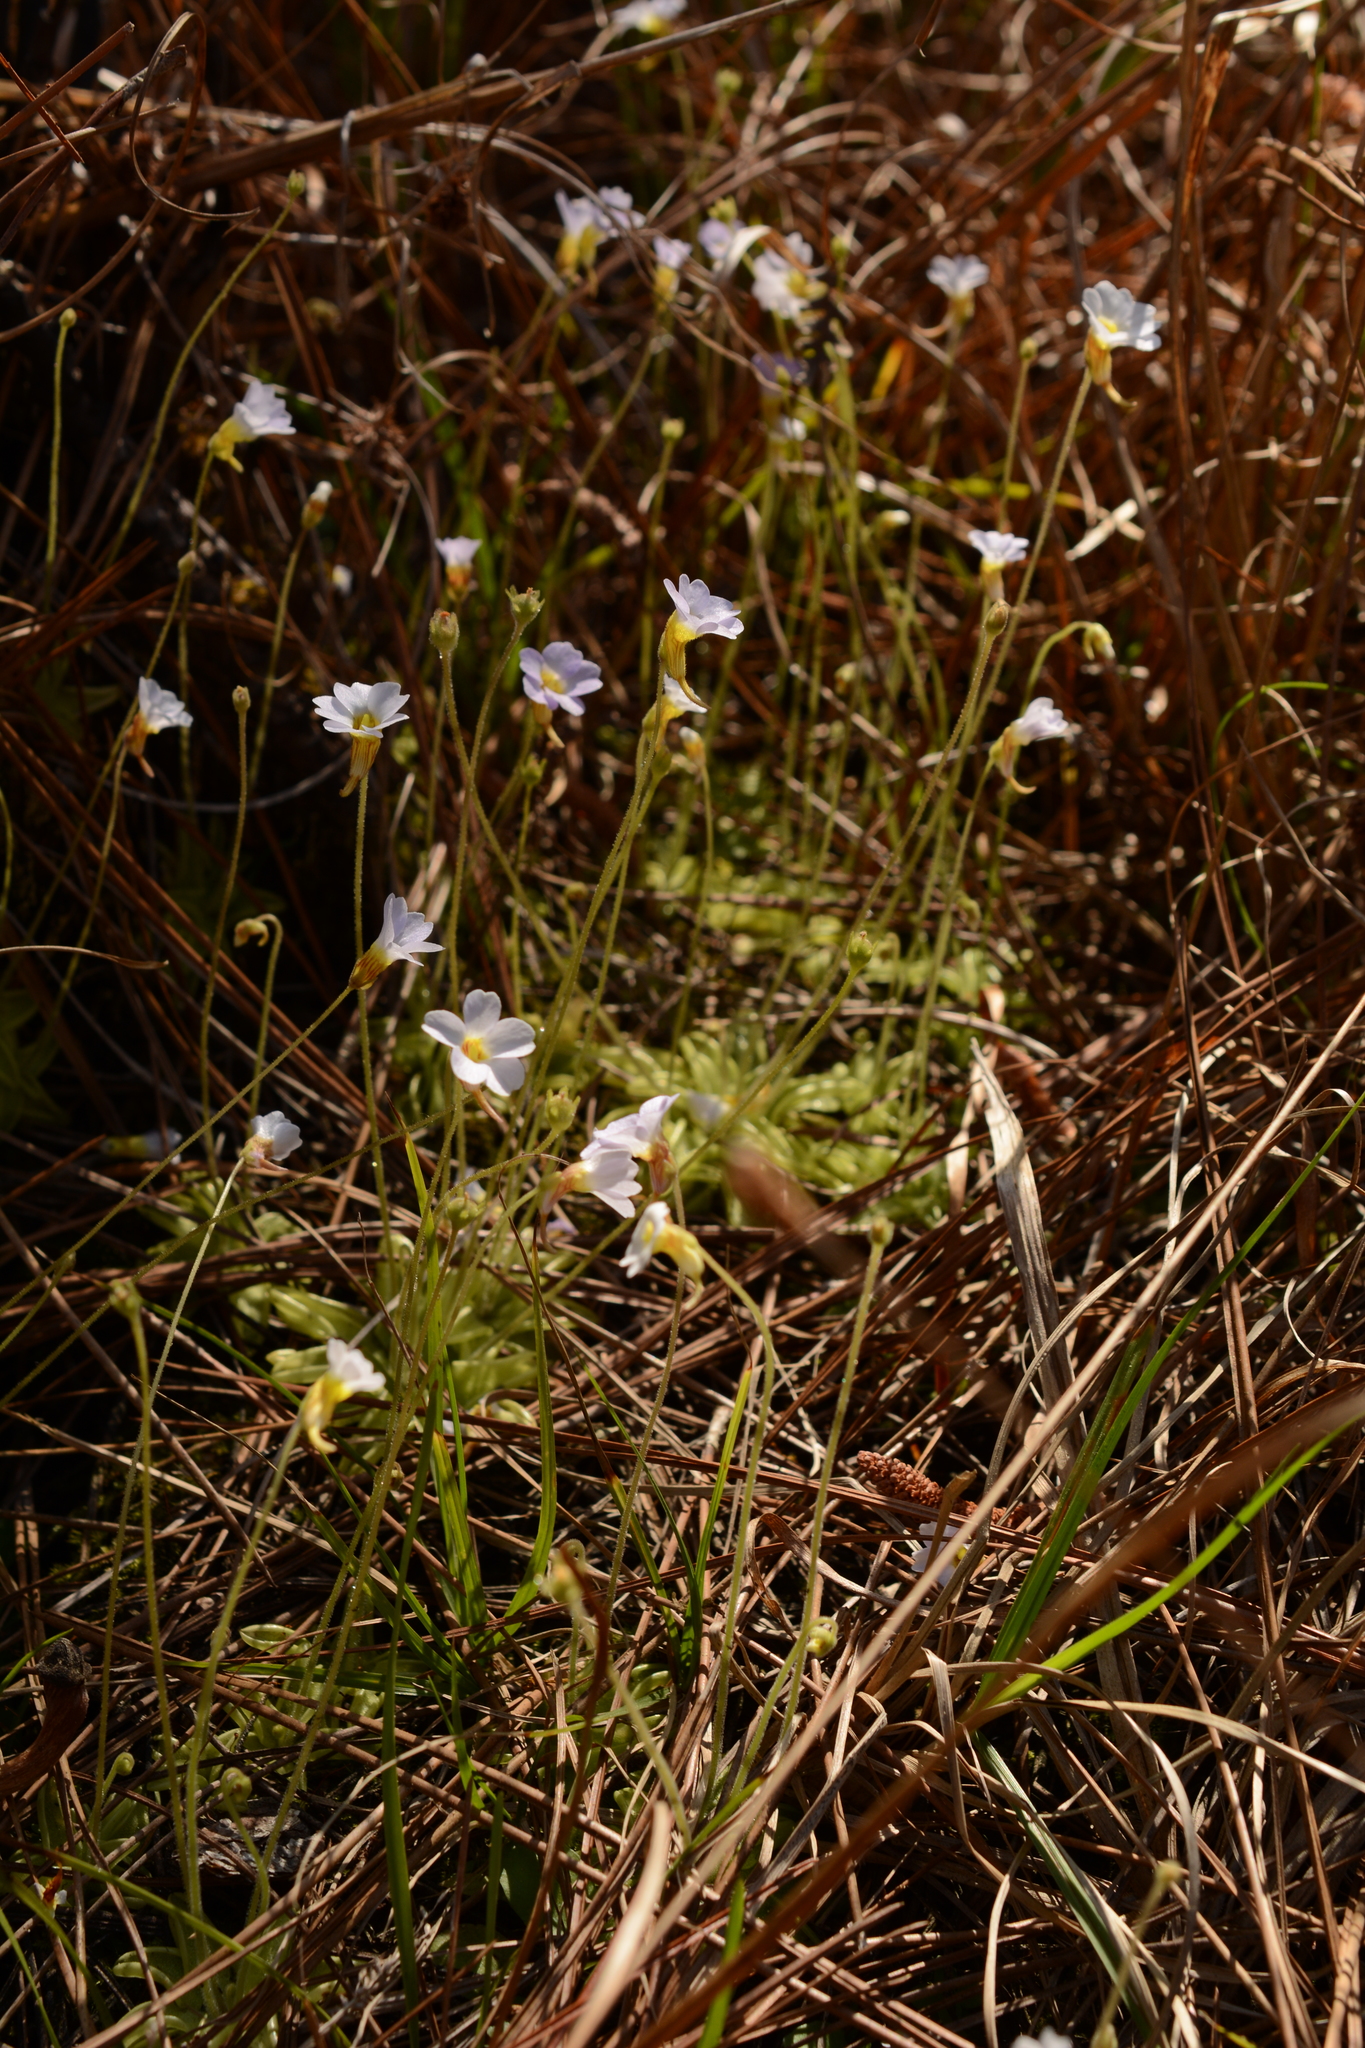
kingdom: Plantae
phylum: Tracheophyta
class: Magnoliopsida
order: Lamiales
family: Lentibulariaceae
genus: Pinguicula
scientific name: Pinguicula pumila
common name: Small butterwort
